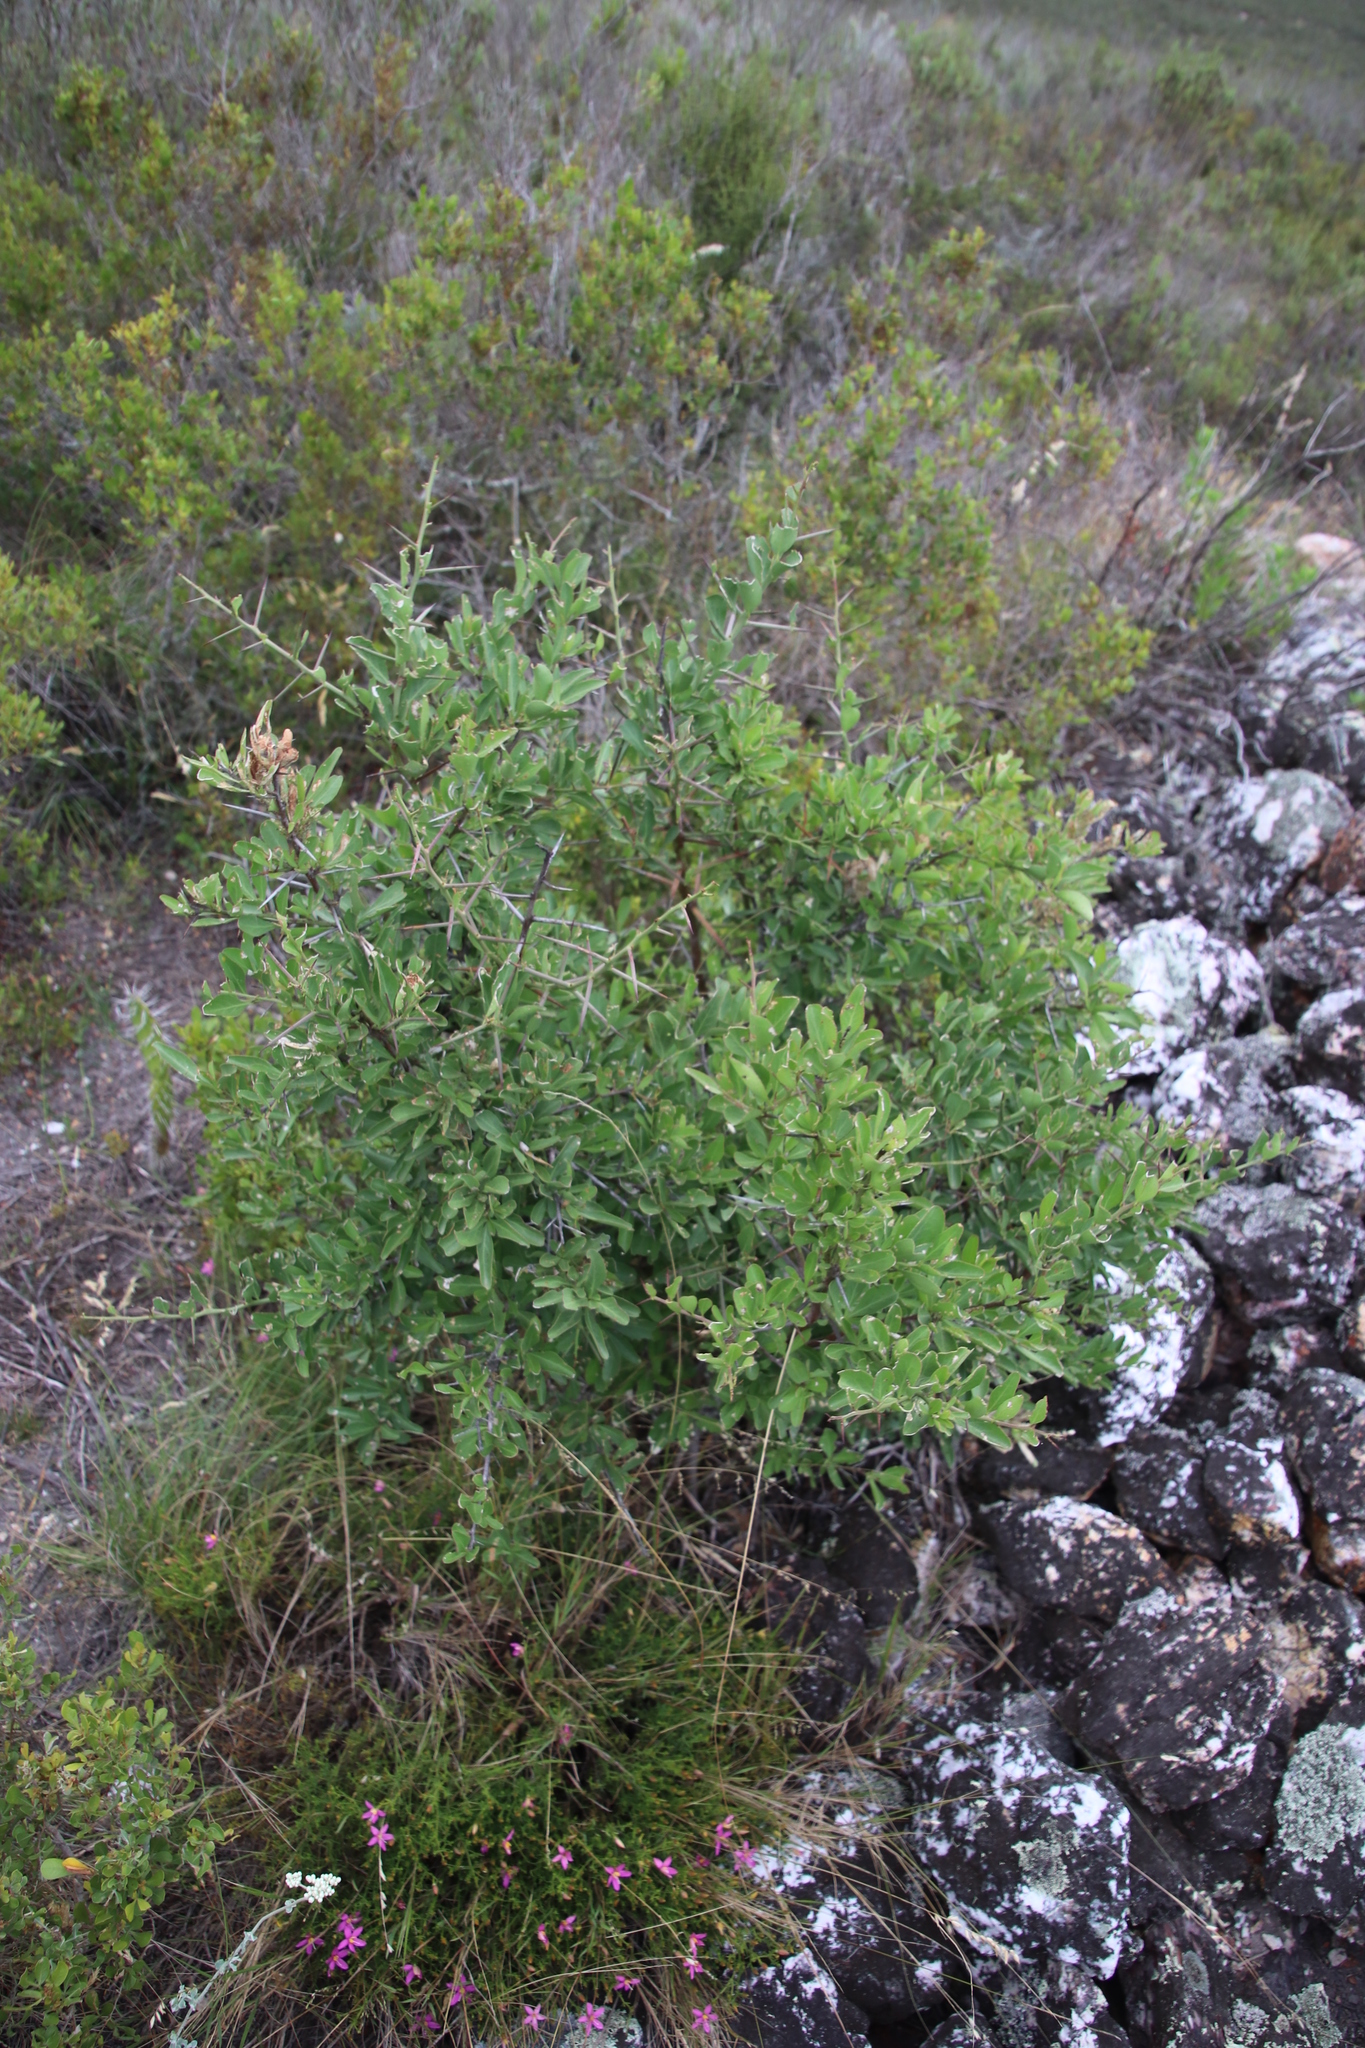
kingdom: Plantae
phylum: Tracheophyta
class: Magnoliopsida
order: Celastrales
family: Celastraceae
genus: Gymnosporia
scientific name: Gymnosporia buxifolia
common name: Common spike-thorn
